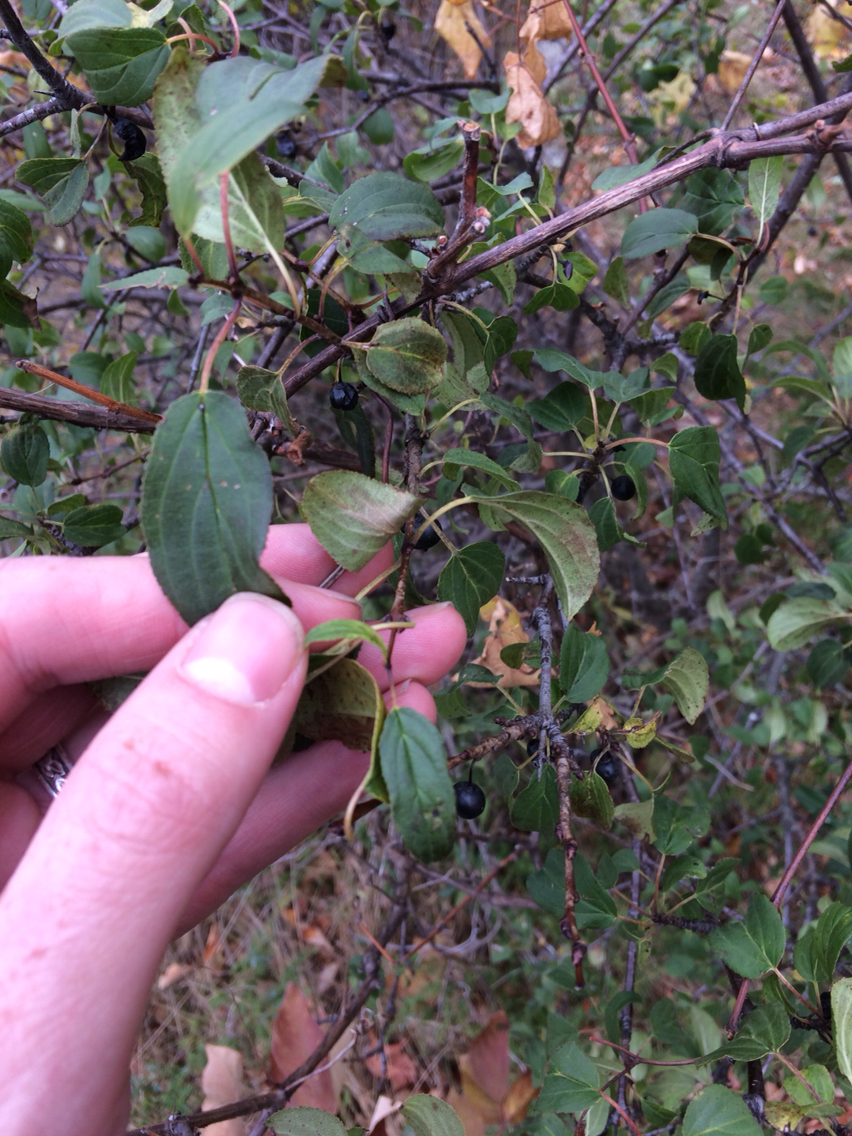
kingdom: Plantae
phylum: Tracheophyta
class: Magnoliopsida
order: Rosales
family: Rhamnaceae
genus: Rhamnus
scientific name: Rhamnus cathartica
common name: Common buckthorn
